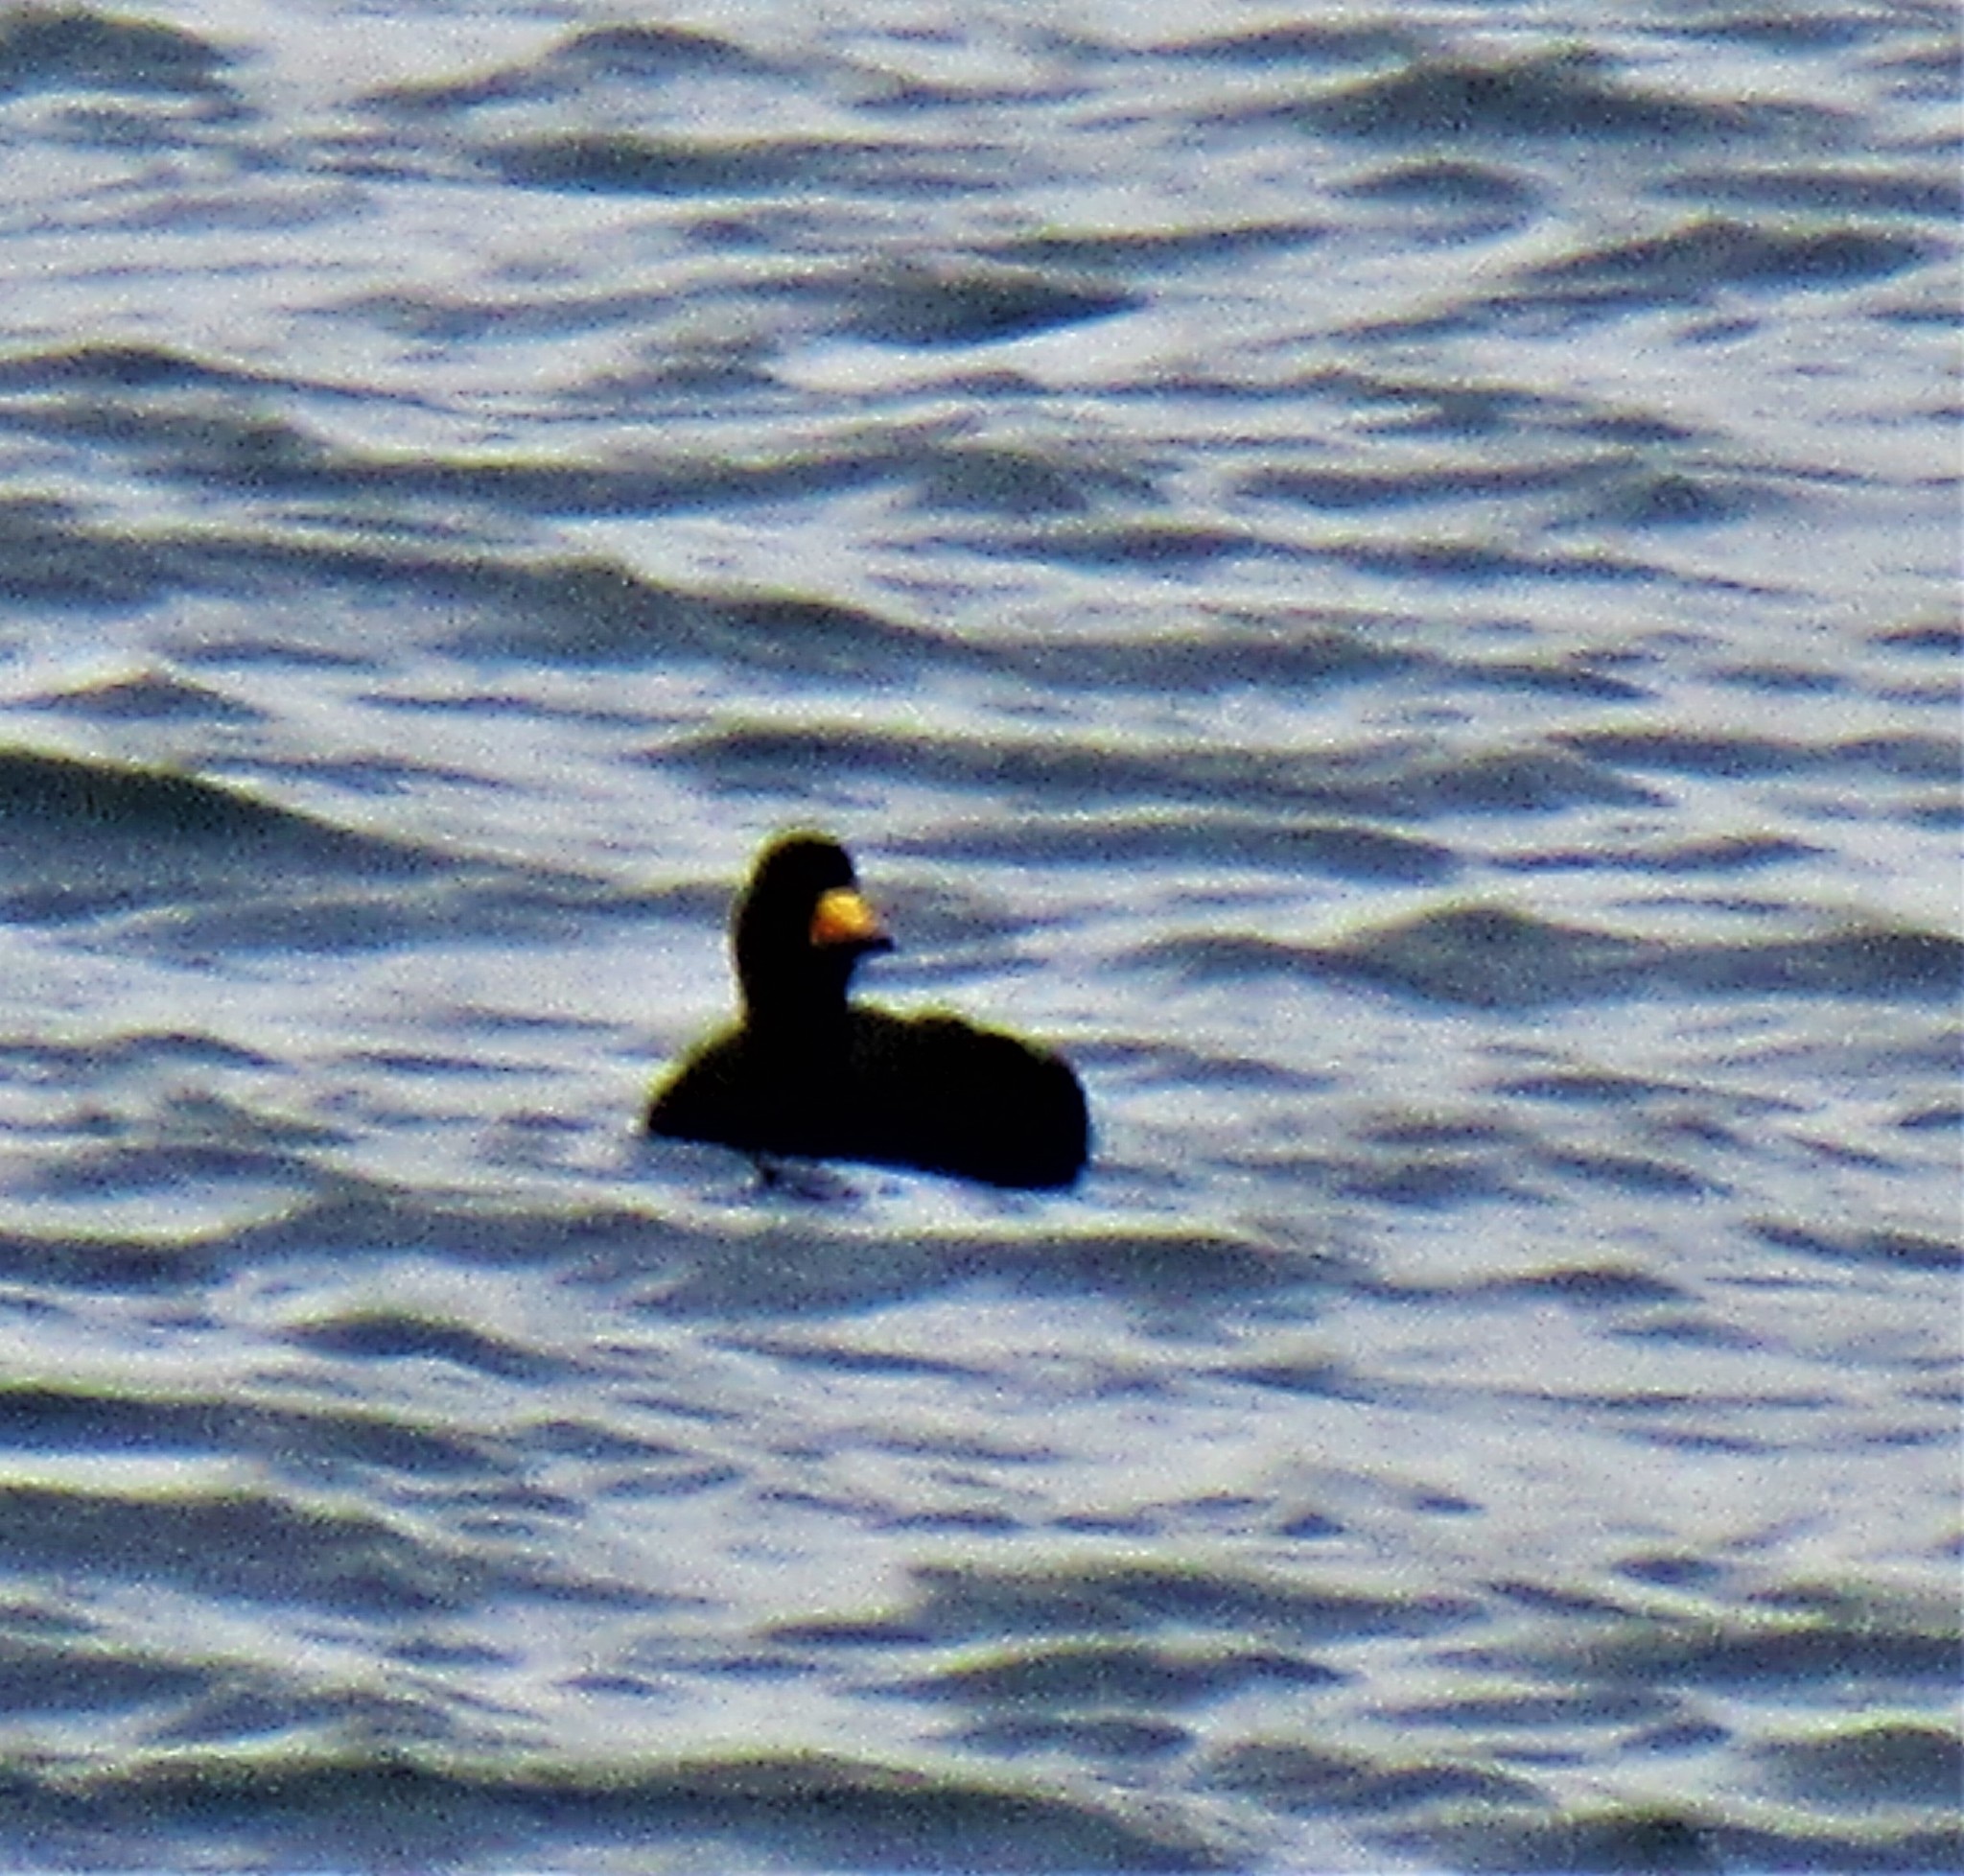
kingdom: Animalia
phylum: Chordata
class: Aves
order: Anseriformes
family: Anatidae
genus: Melanitta
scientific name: Melanitta americana
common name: Black scoter
